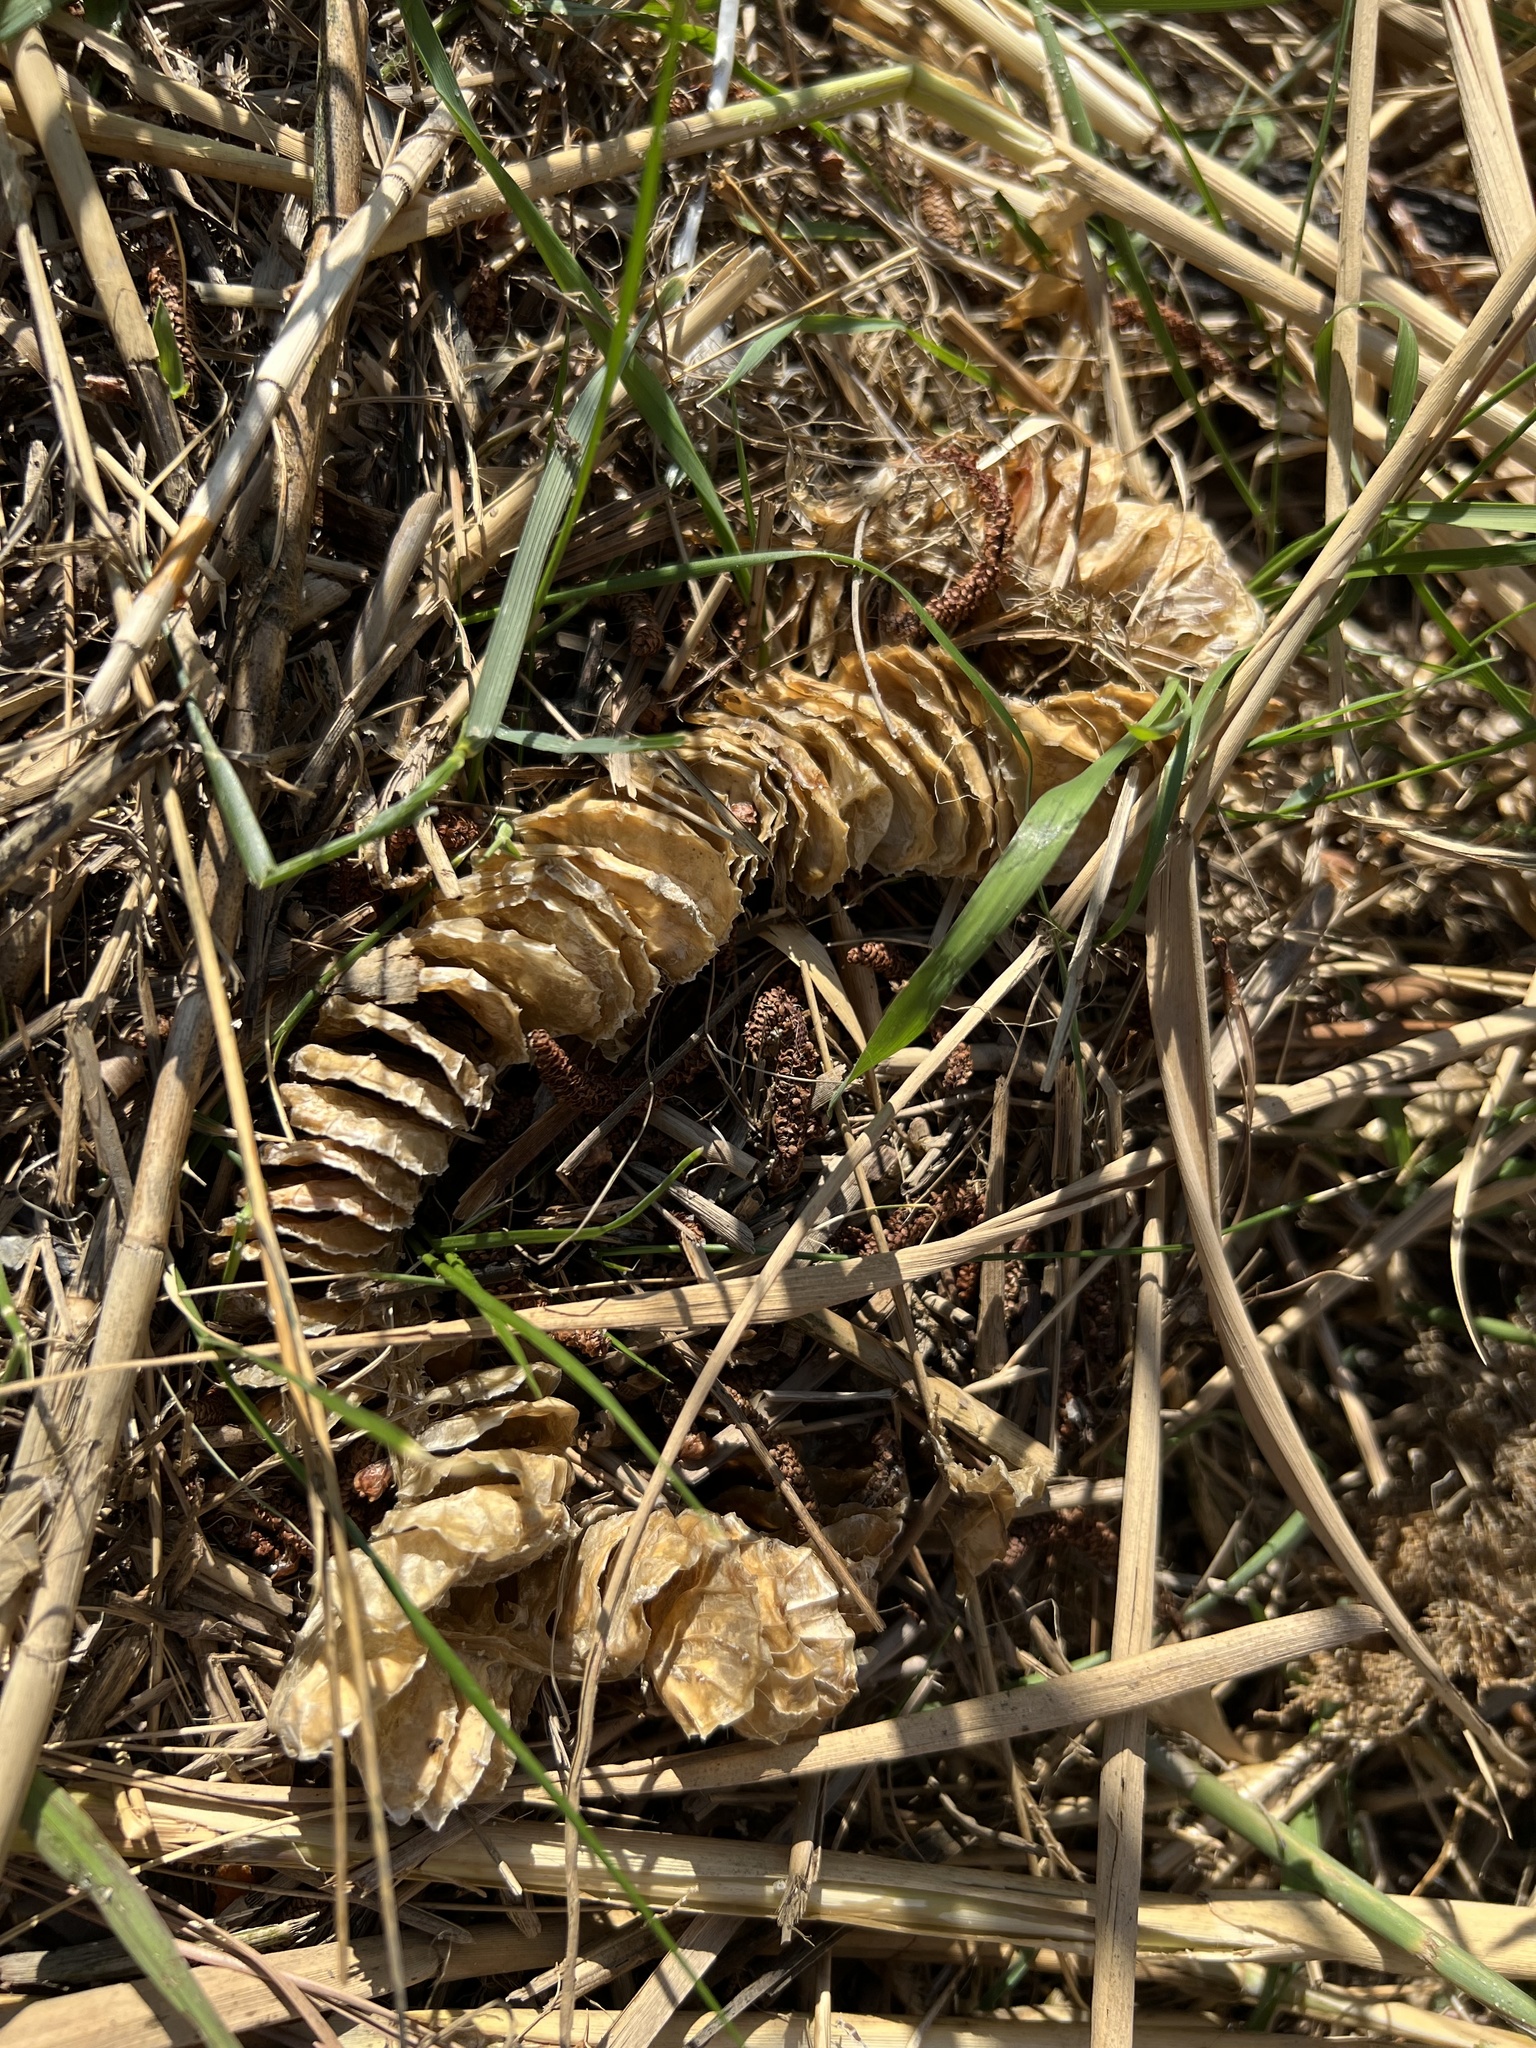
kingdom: Animalia
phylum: Mollusca
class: Gastropoda
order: Neogastropoda
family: Busyconidae
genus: Busycotypus
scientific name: Busycotypus canaliculatus
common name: Channeled whelk
